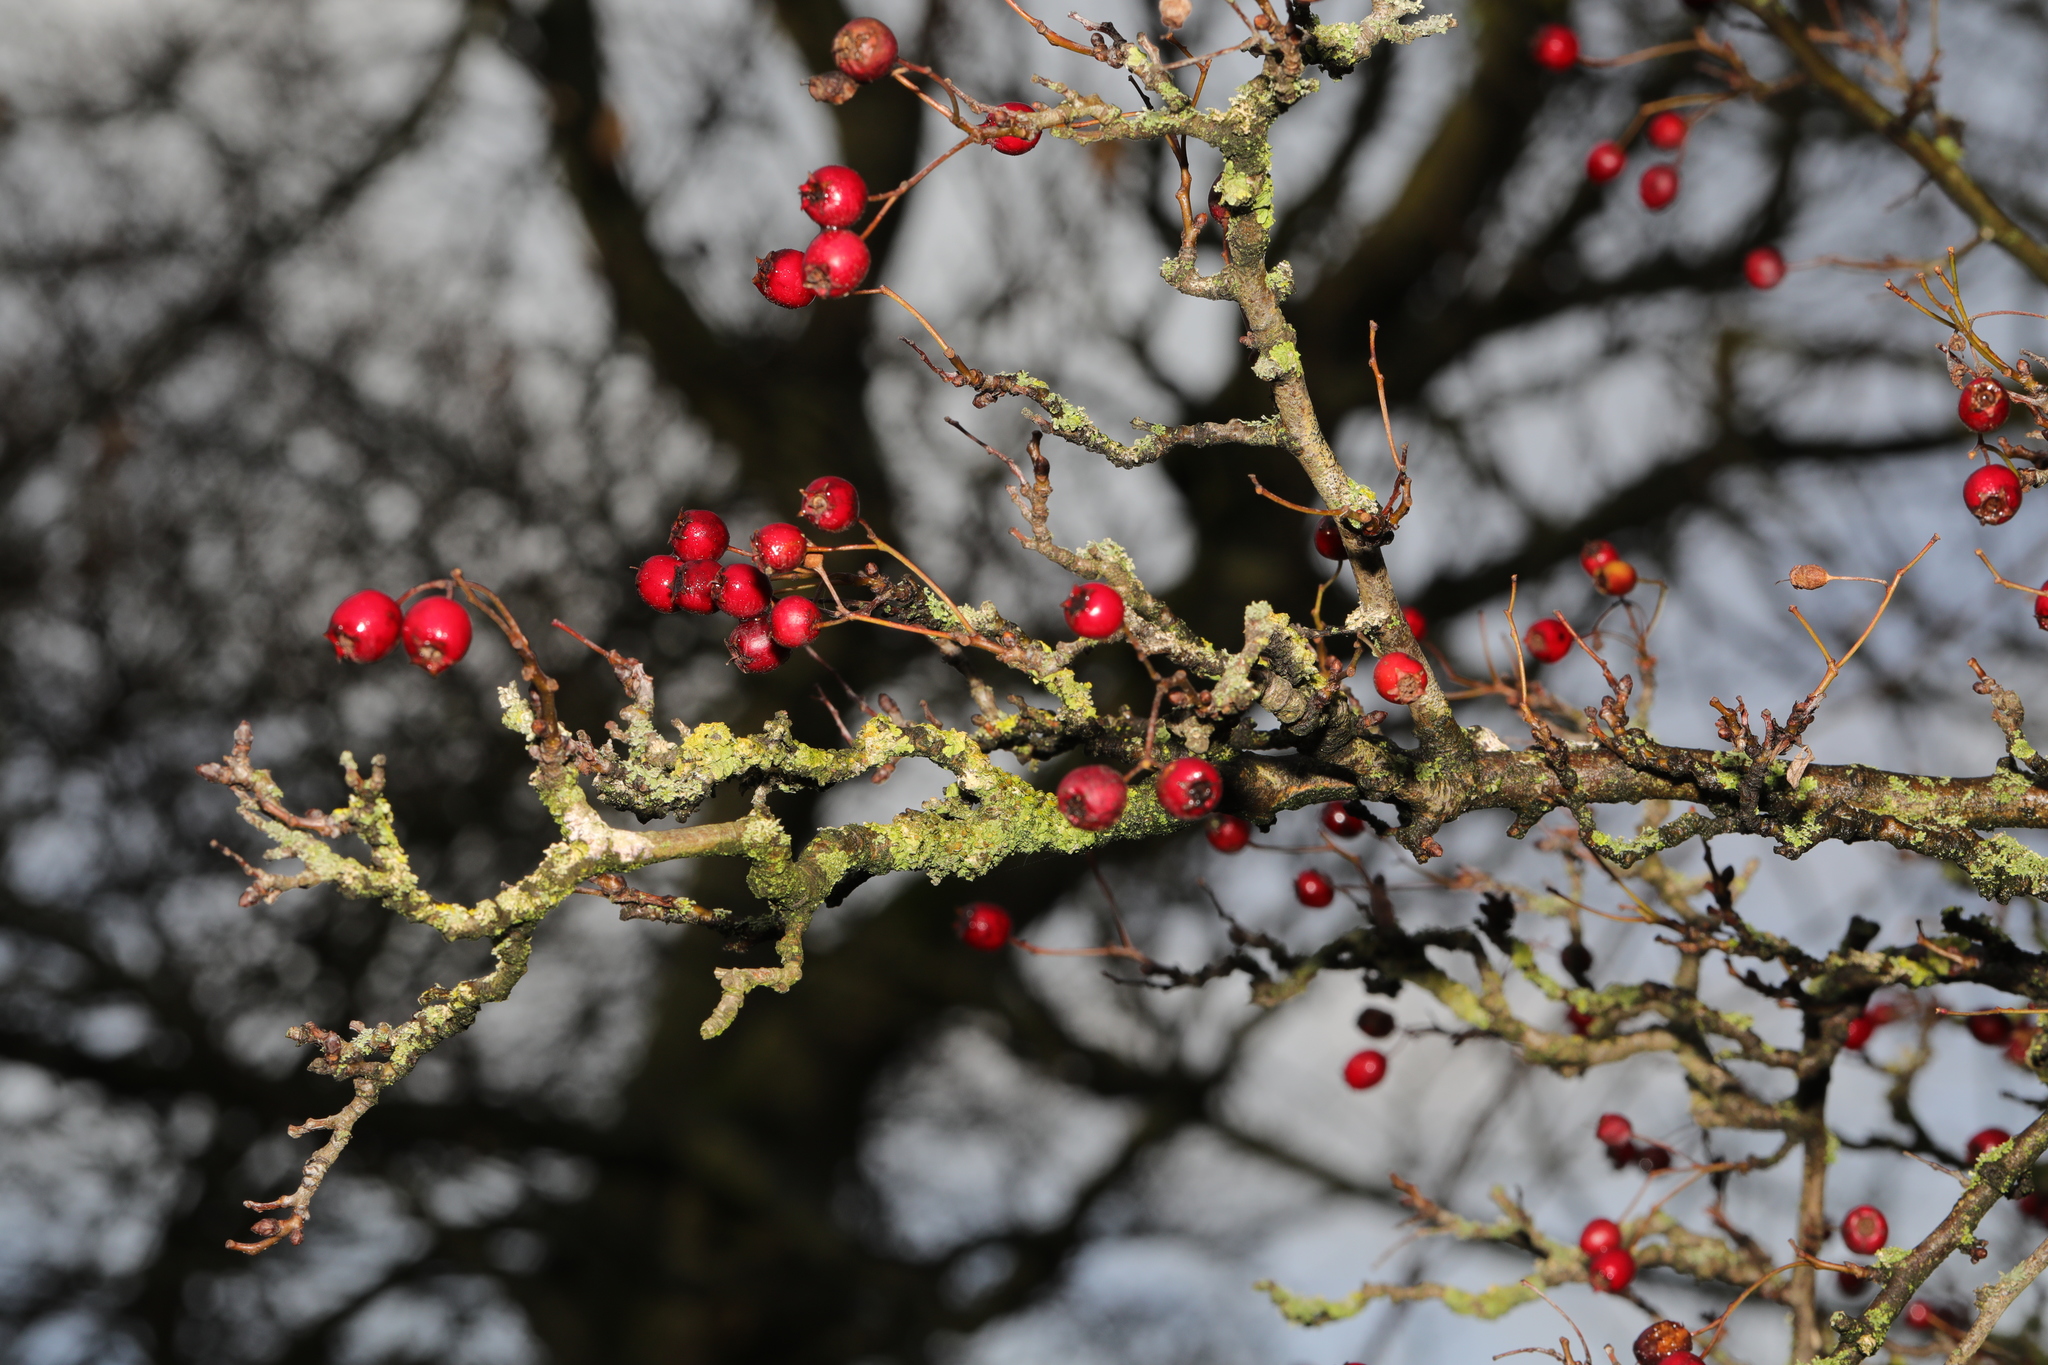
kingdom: Plantae
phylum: Tracheophyta
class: Magnoliopsida
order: Rosales
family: Rosaceae
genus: Crataegus
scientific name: Crataegus monogyna
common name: Hawthorn
